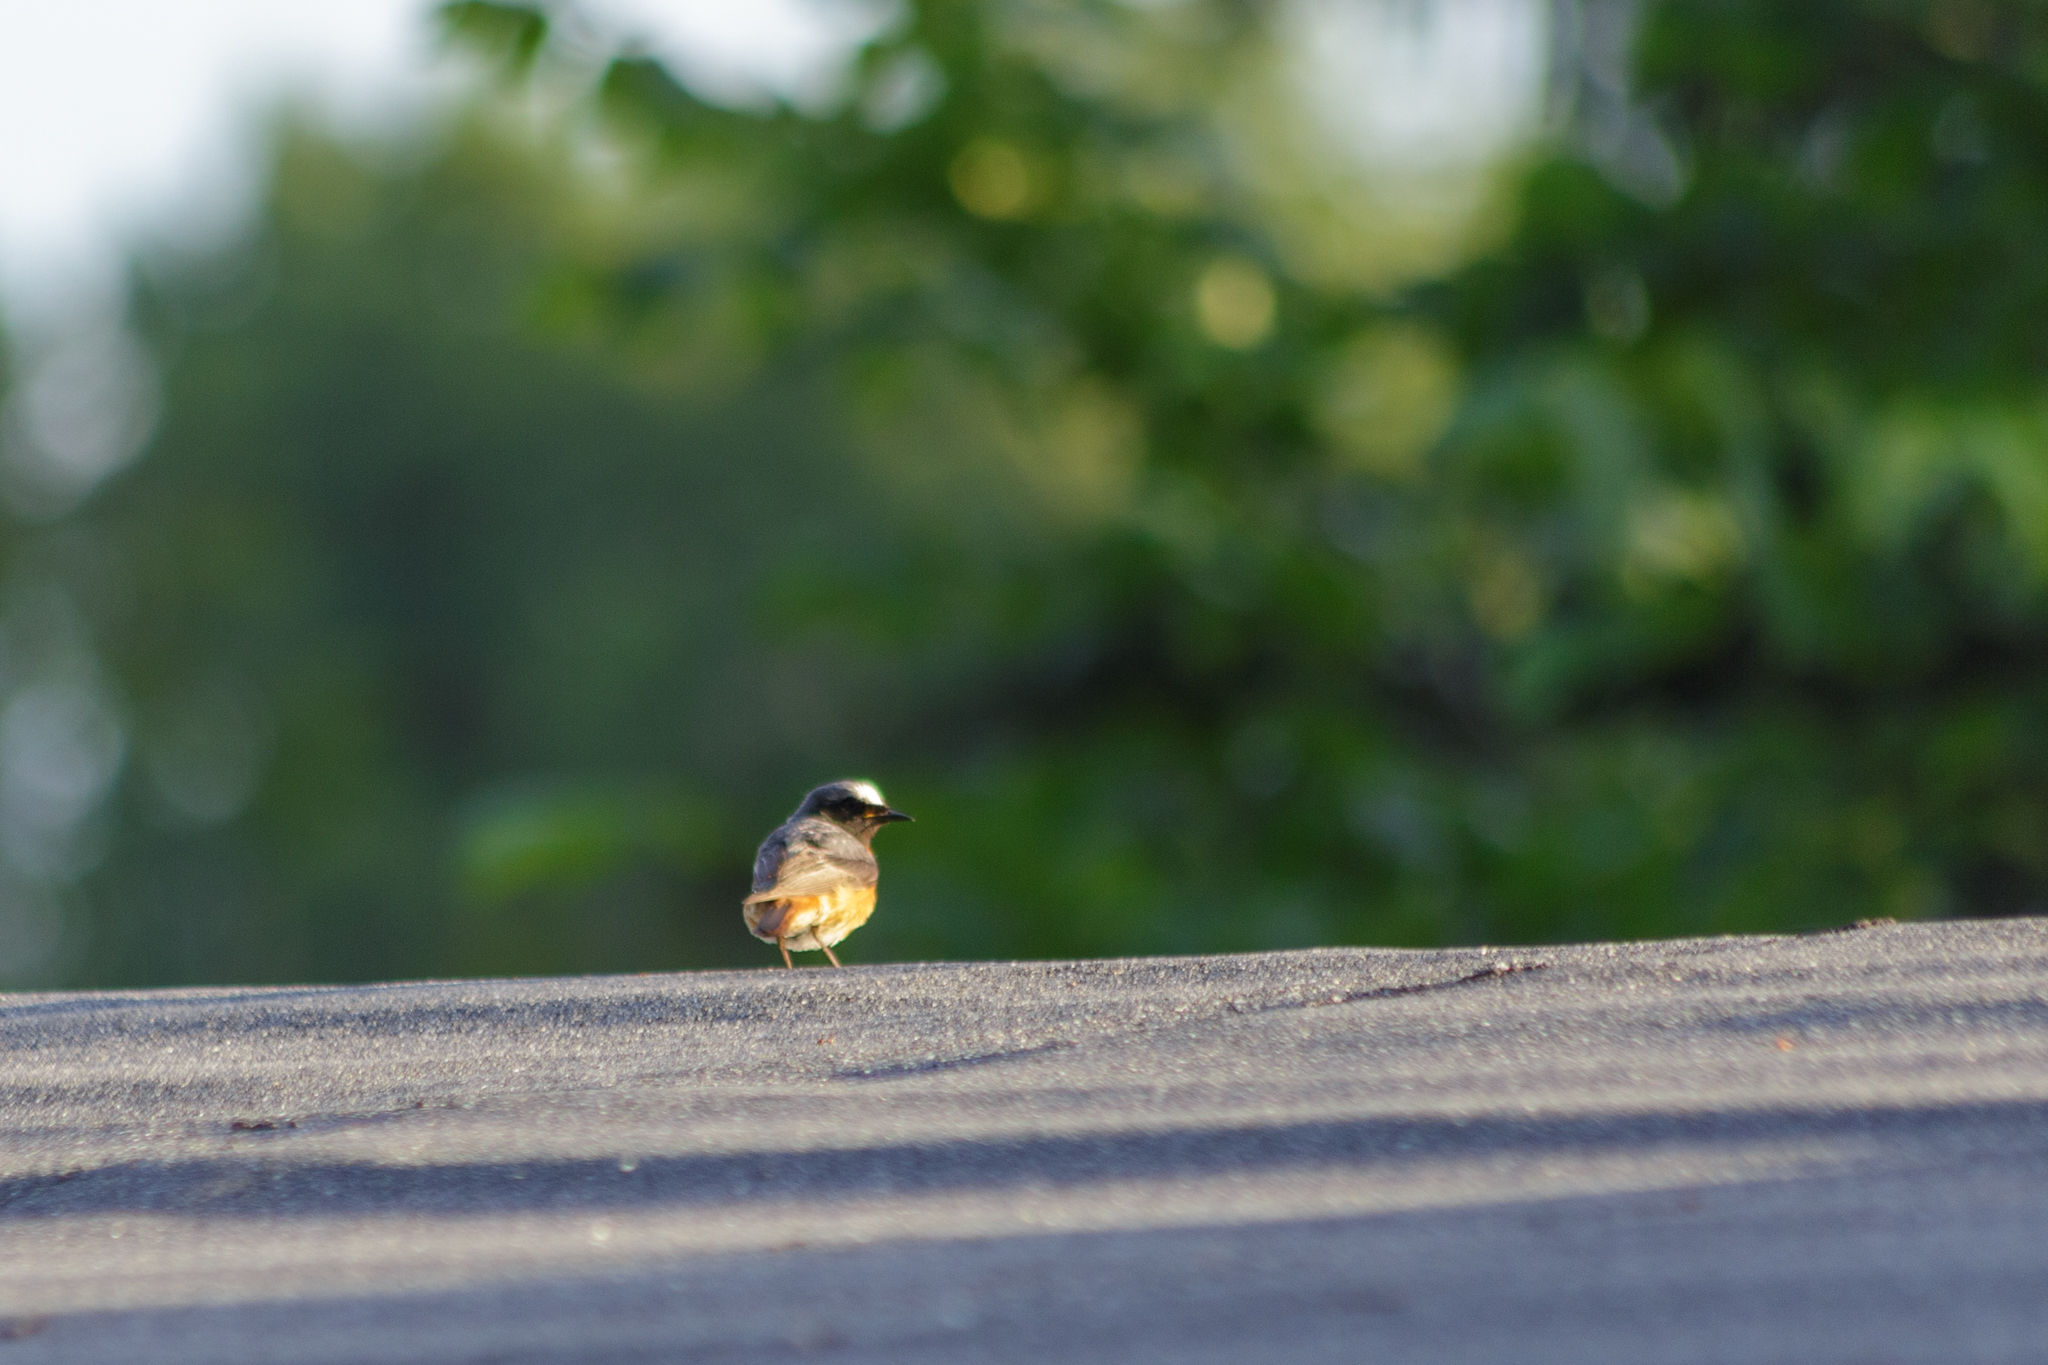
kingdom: Animalia
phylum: Chordata
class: Aves
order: Passeriformes
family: Muscicapidae
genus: Phoenicurus
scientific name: Phoenicurus phoenicurus
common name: Common redstart
